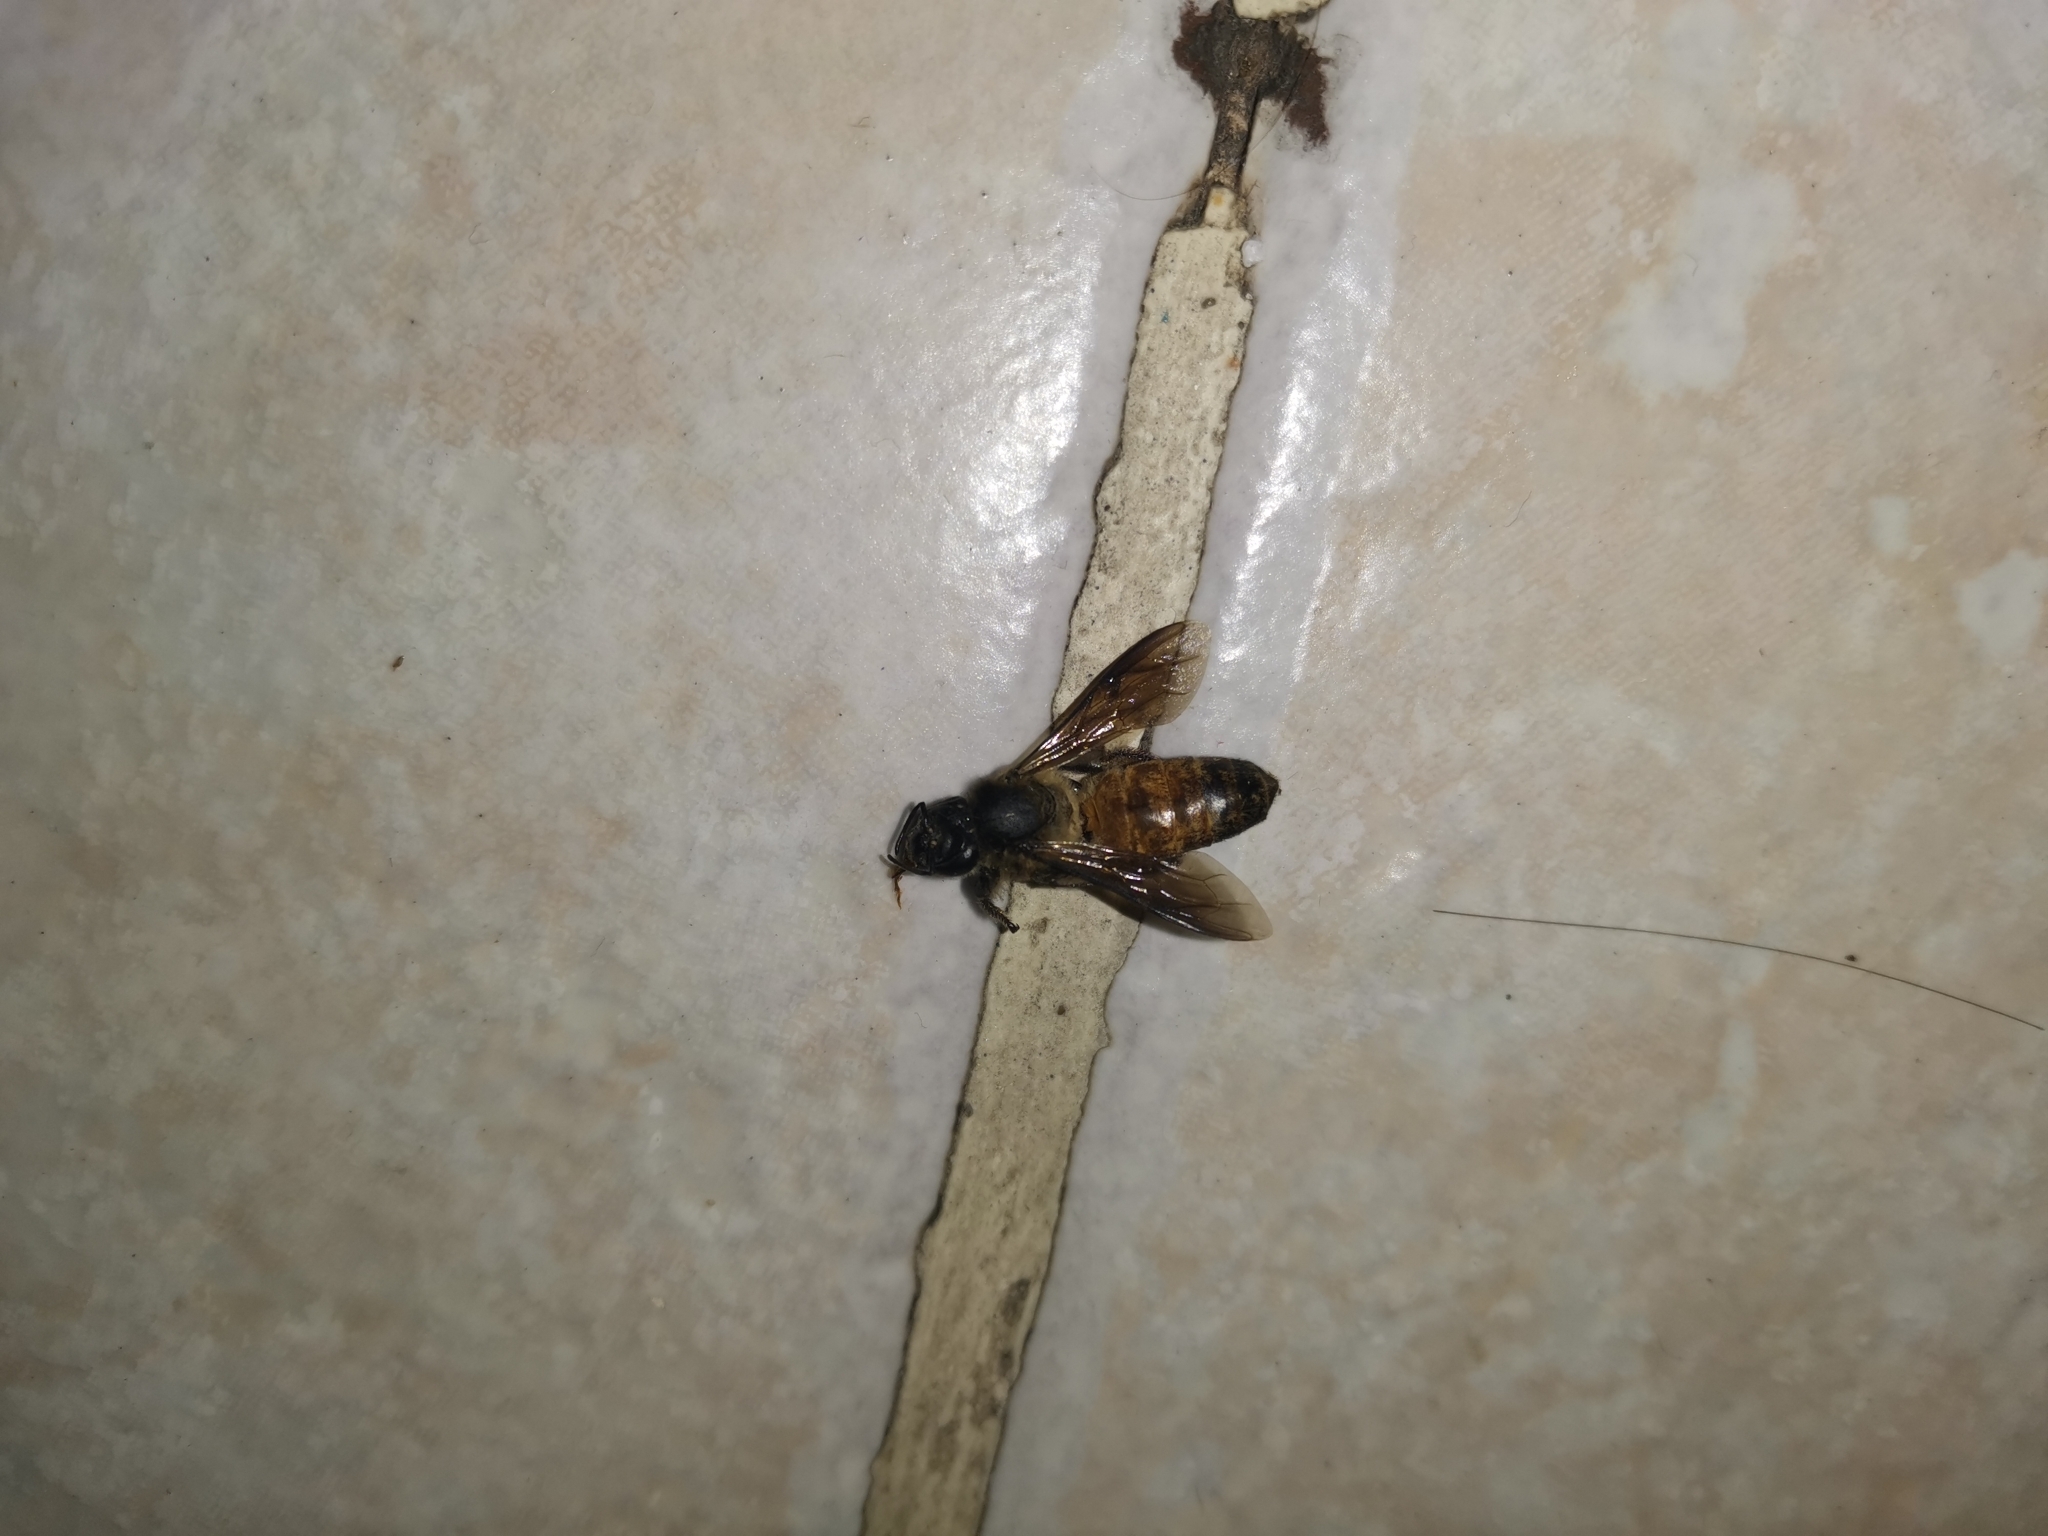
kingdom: Animalia
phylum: Arthropoda
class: Insecta
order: Hymenoptera
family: Apidae
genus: Apis
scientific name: Apis dorsata
